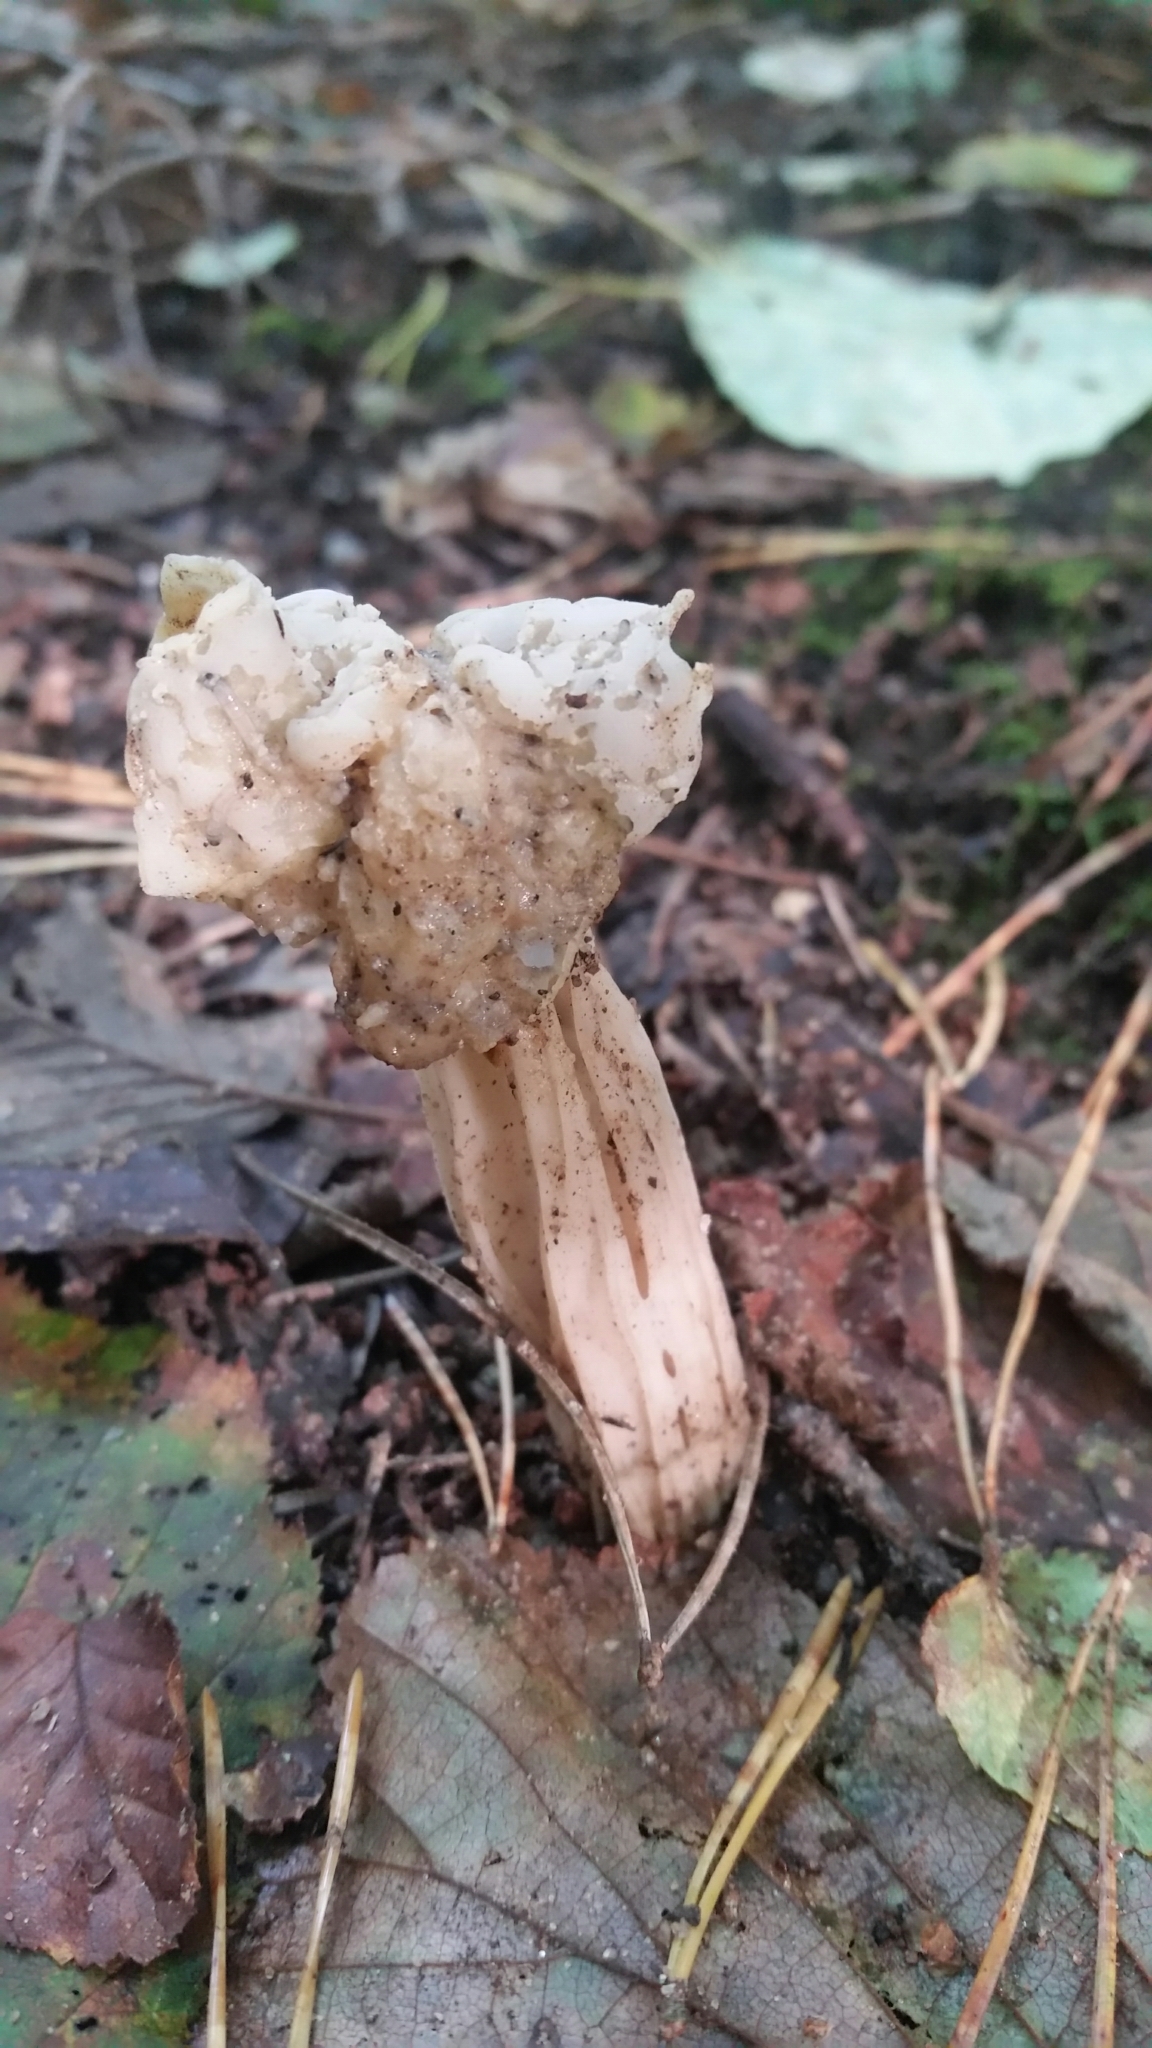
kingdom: Fungi
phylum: Ascomycota
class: Pezizomycetes
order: Pezizales
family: Helvellaceae
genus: Helvella
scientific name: Helvella crispa
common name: White saddle
